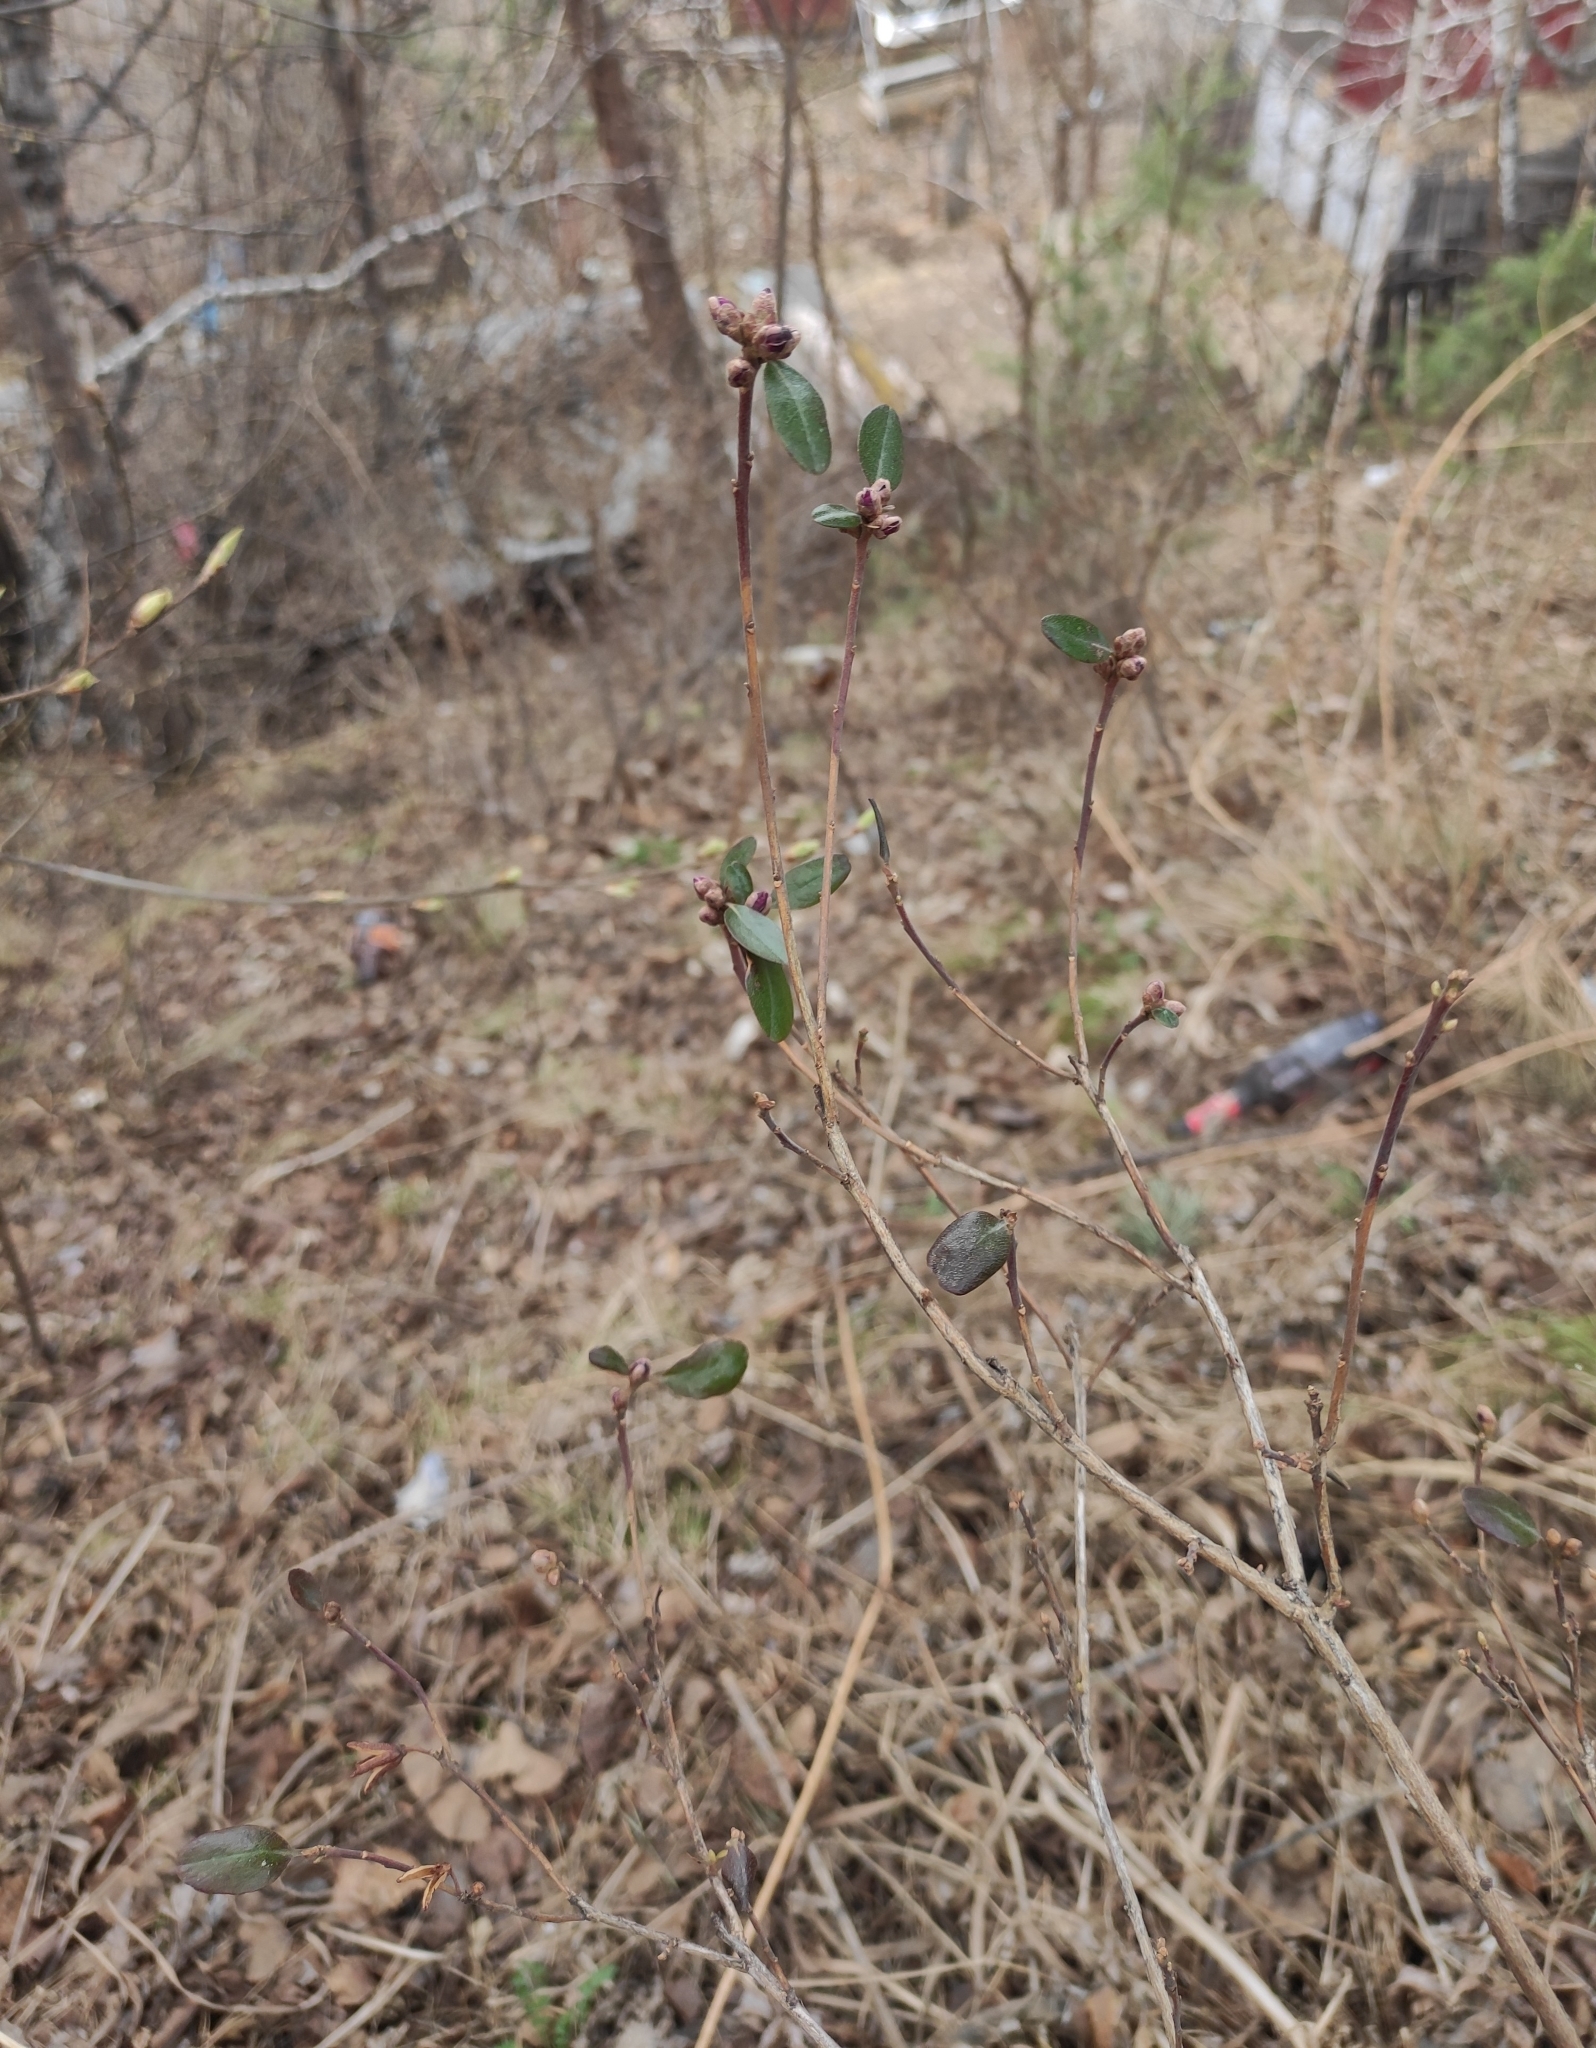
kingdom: Plantae
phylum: Tracheophyta
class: Magnoliopsida
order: Ericales
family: Ericaceae
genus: Rhododendron
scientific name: Rhododendron dauricum
